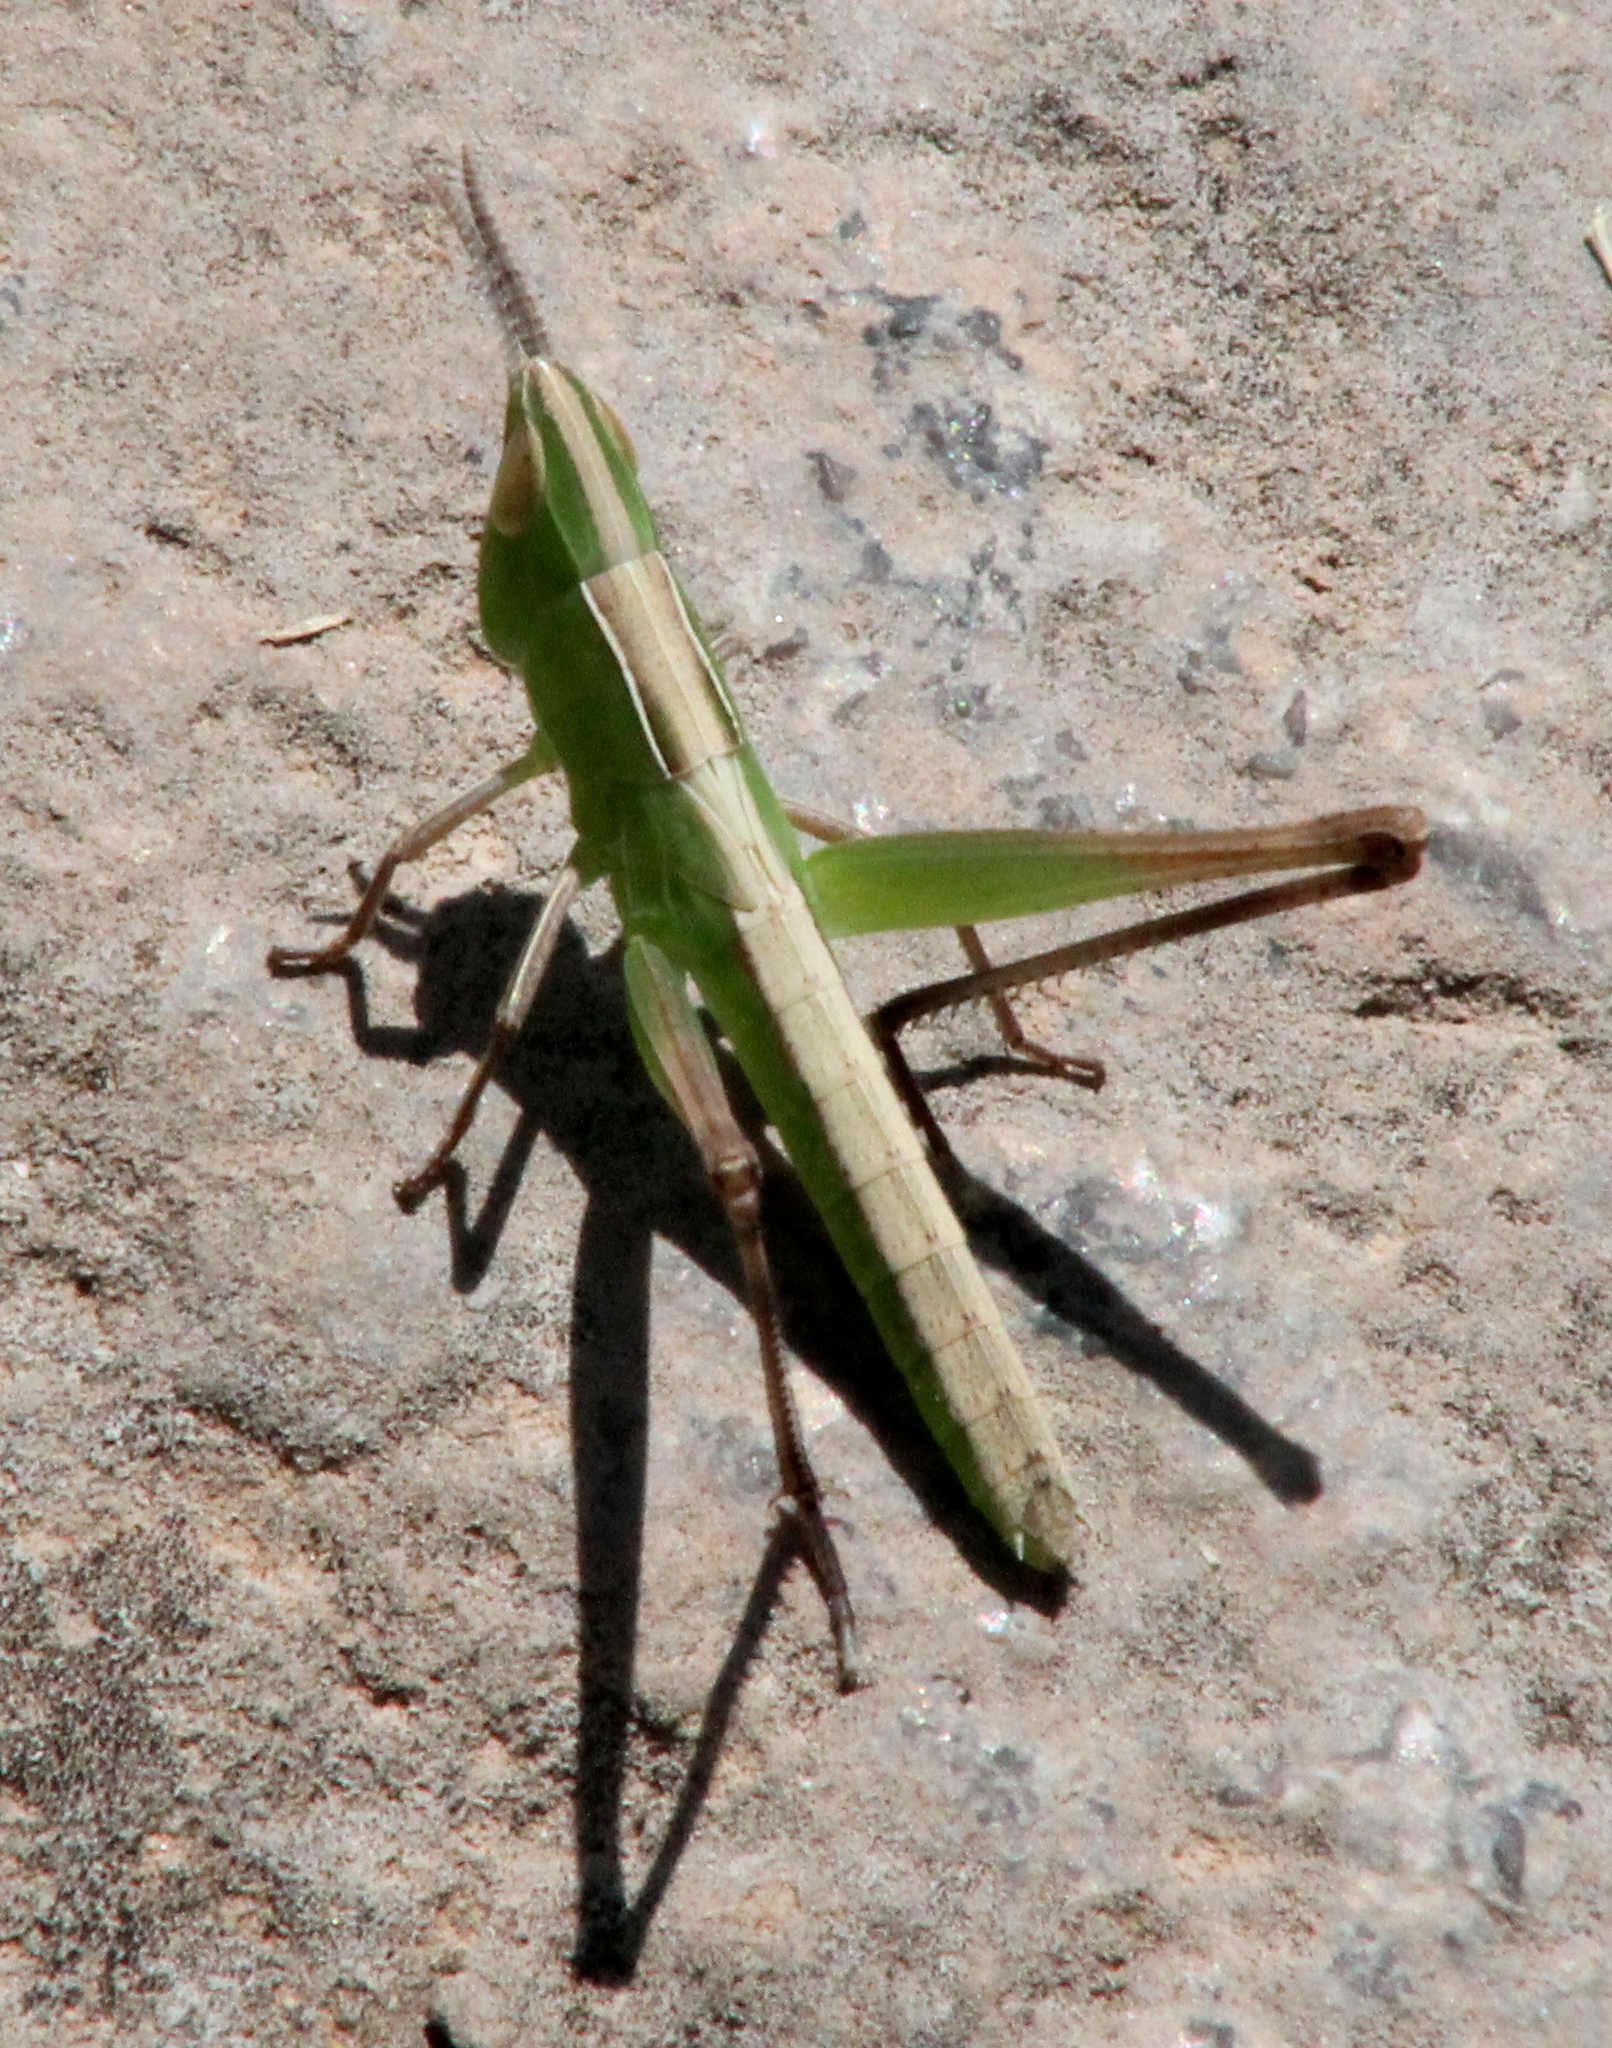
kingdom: Animalia
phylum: Arthropoda
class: Insecta
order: Orthoptera
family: Acrididae
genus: Syrbula
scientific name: Syrbula admirabilis
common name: Handsome grasshopper
